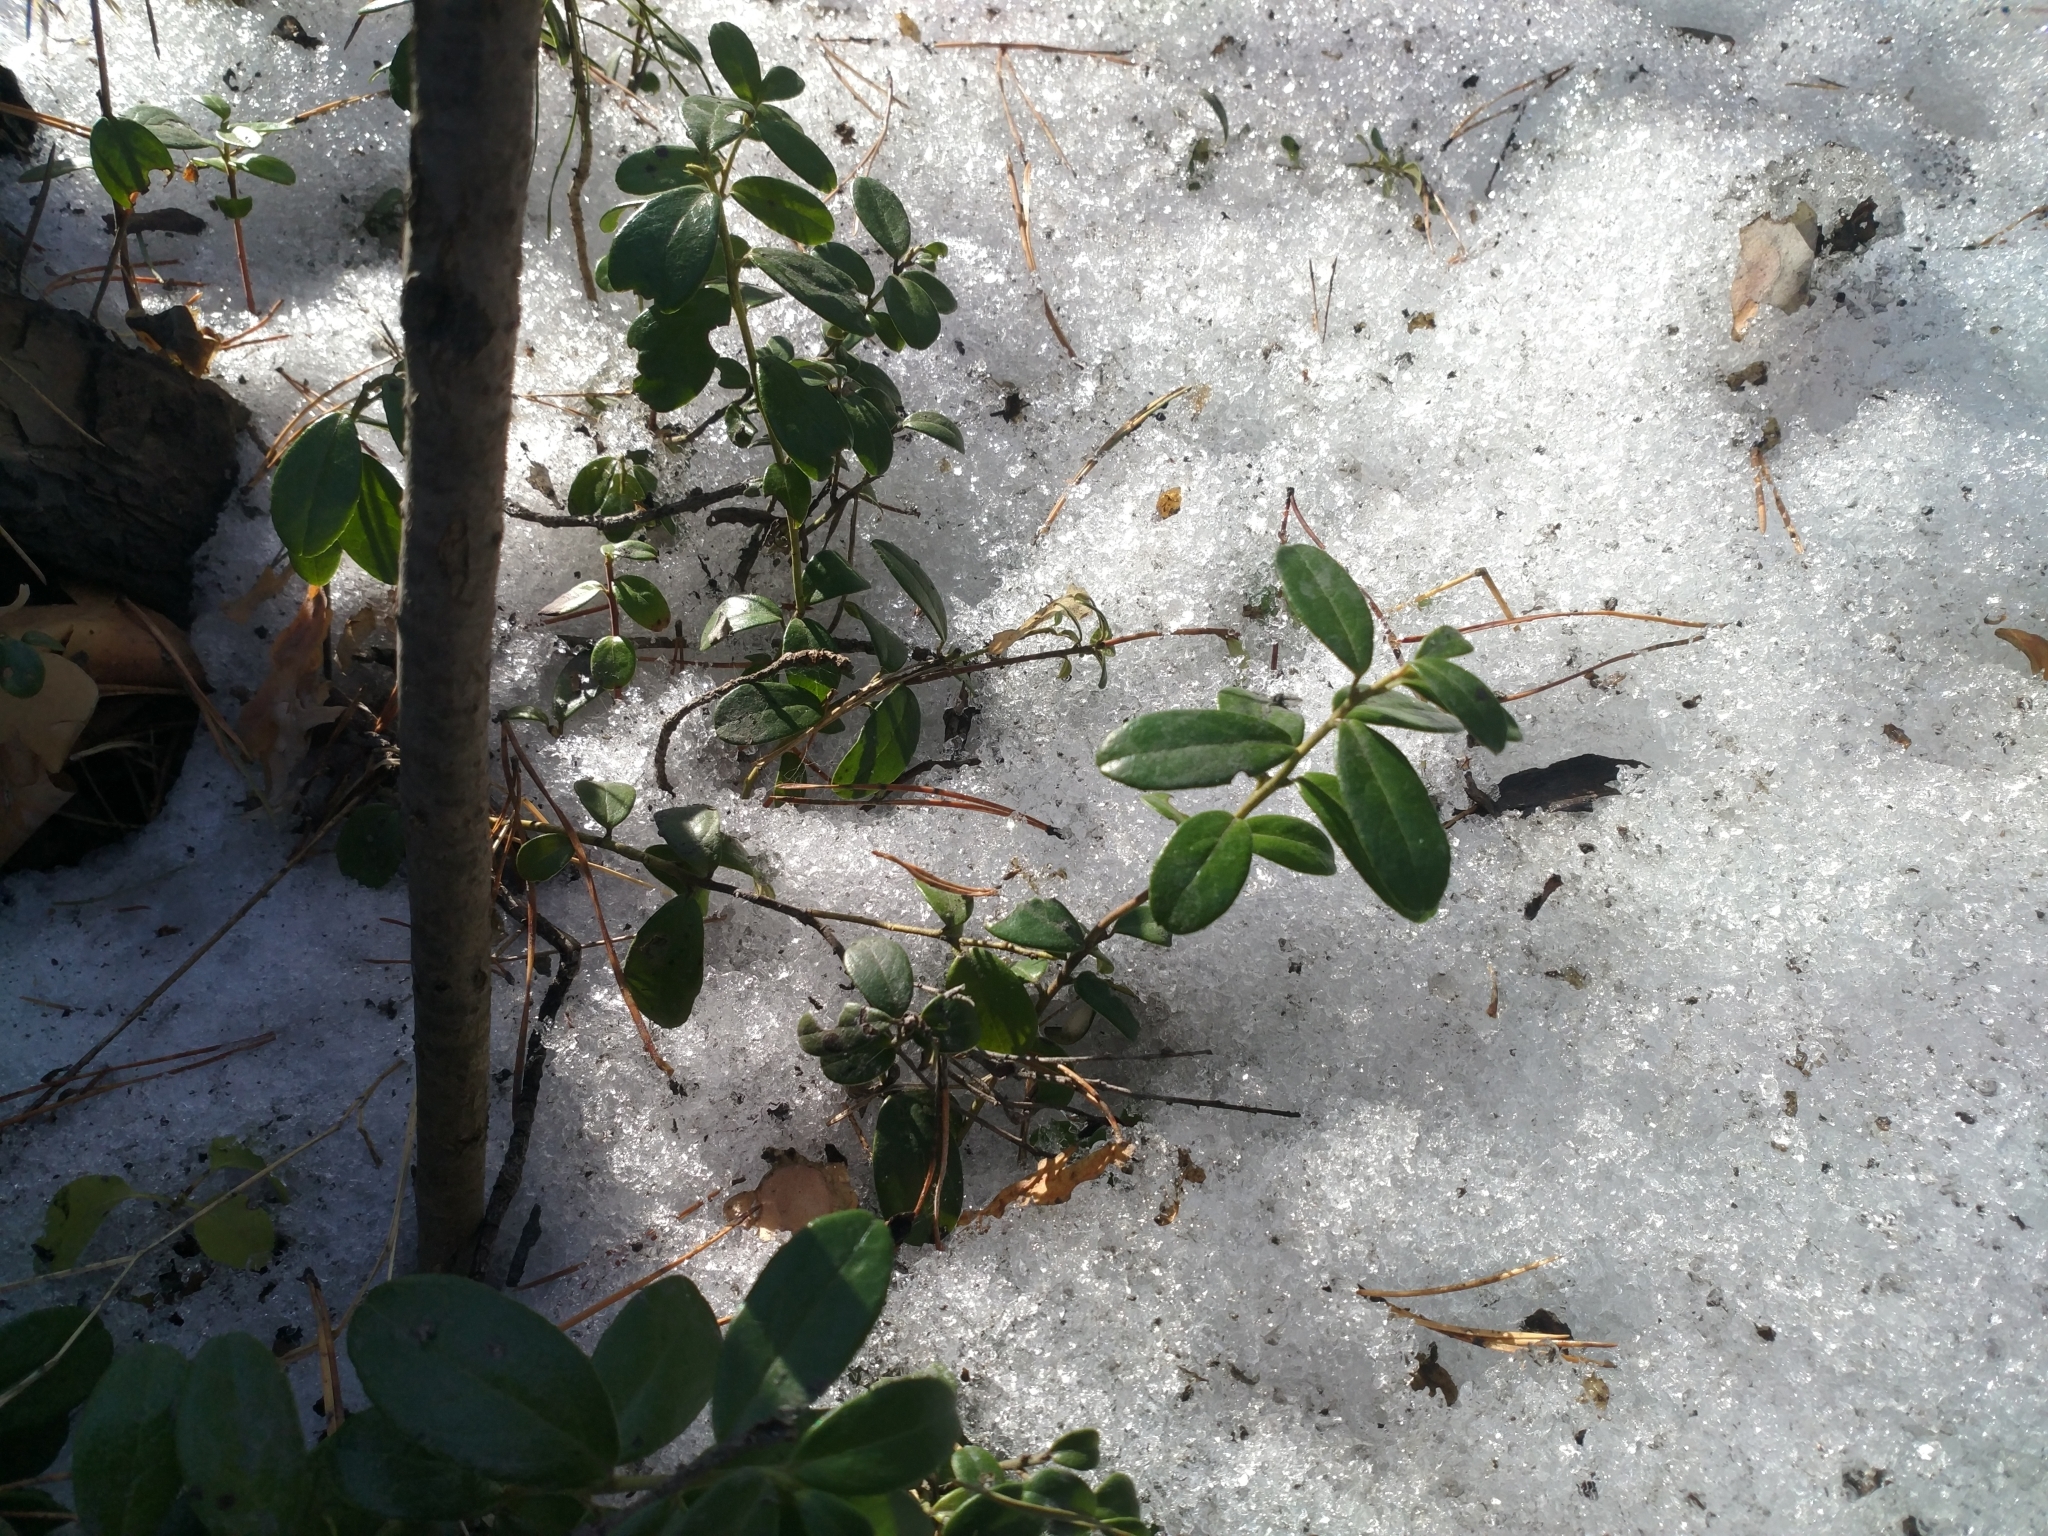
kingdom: Plantae
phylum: Tracheophyta
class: Magnoliopsida
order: Ericales
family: Ericaceae
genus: Vaccinium
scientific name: Vaccinium vitis-idaea
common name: Cowberry
